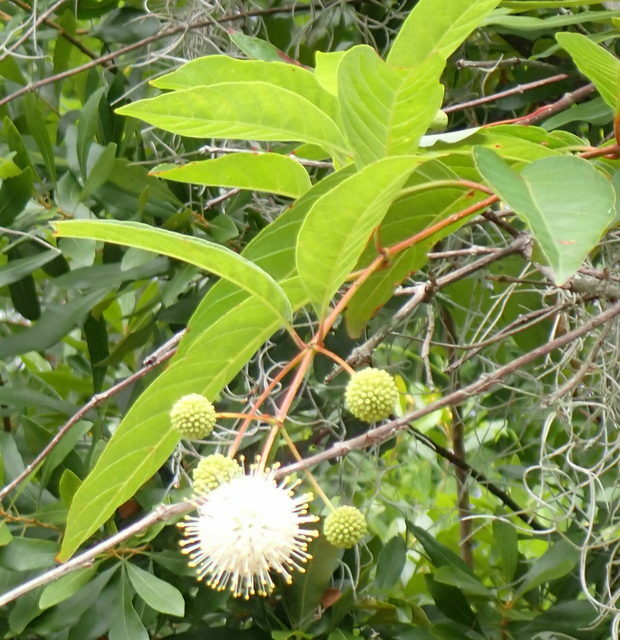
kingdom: Plantae
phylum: Tracheophyta
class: Magnoliopsida
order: Gentianales
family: Rubiaceae
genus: Cephalanthus
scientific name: Cephalanthus occidentalis
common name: Button-willow
